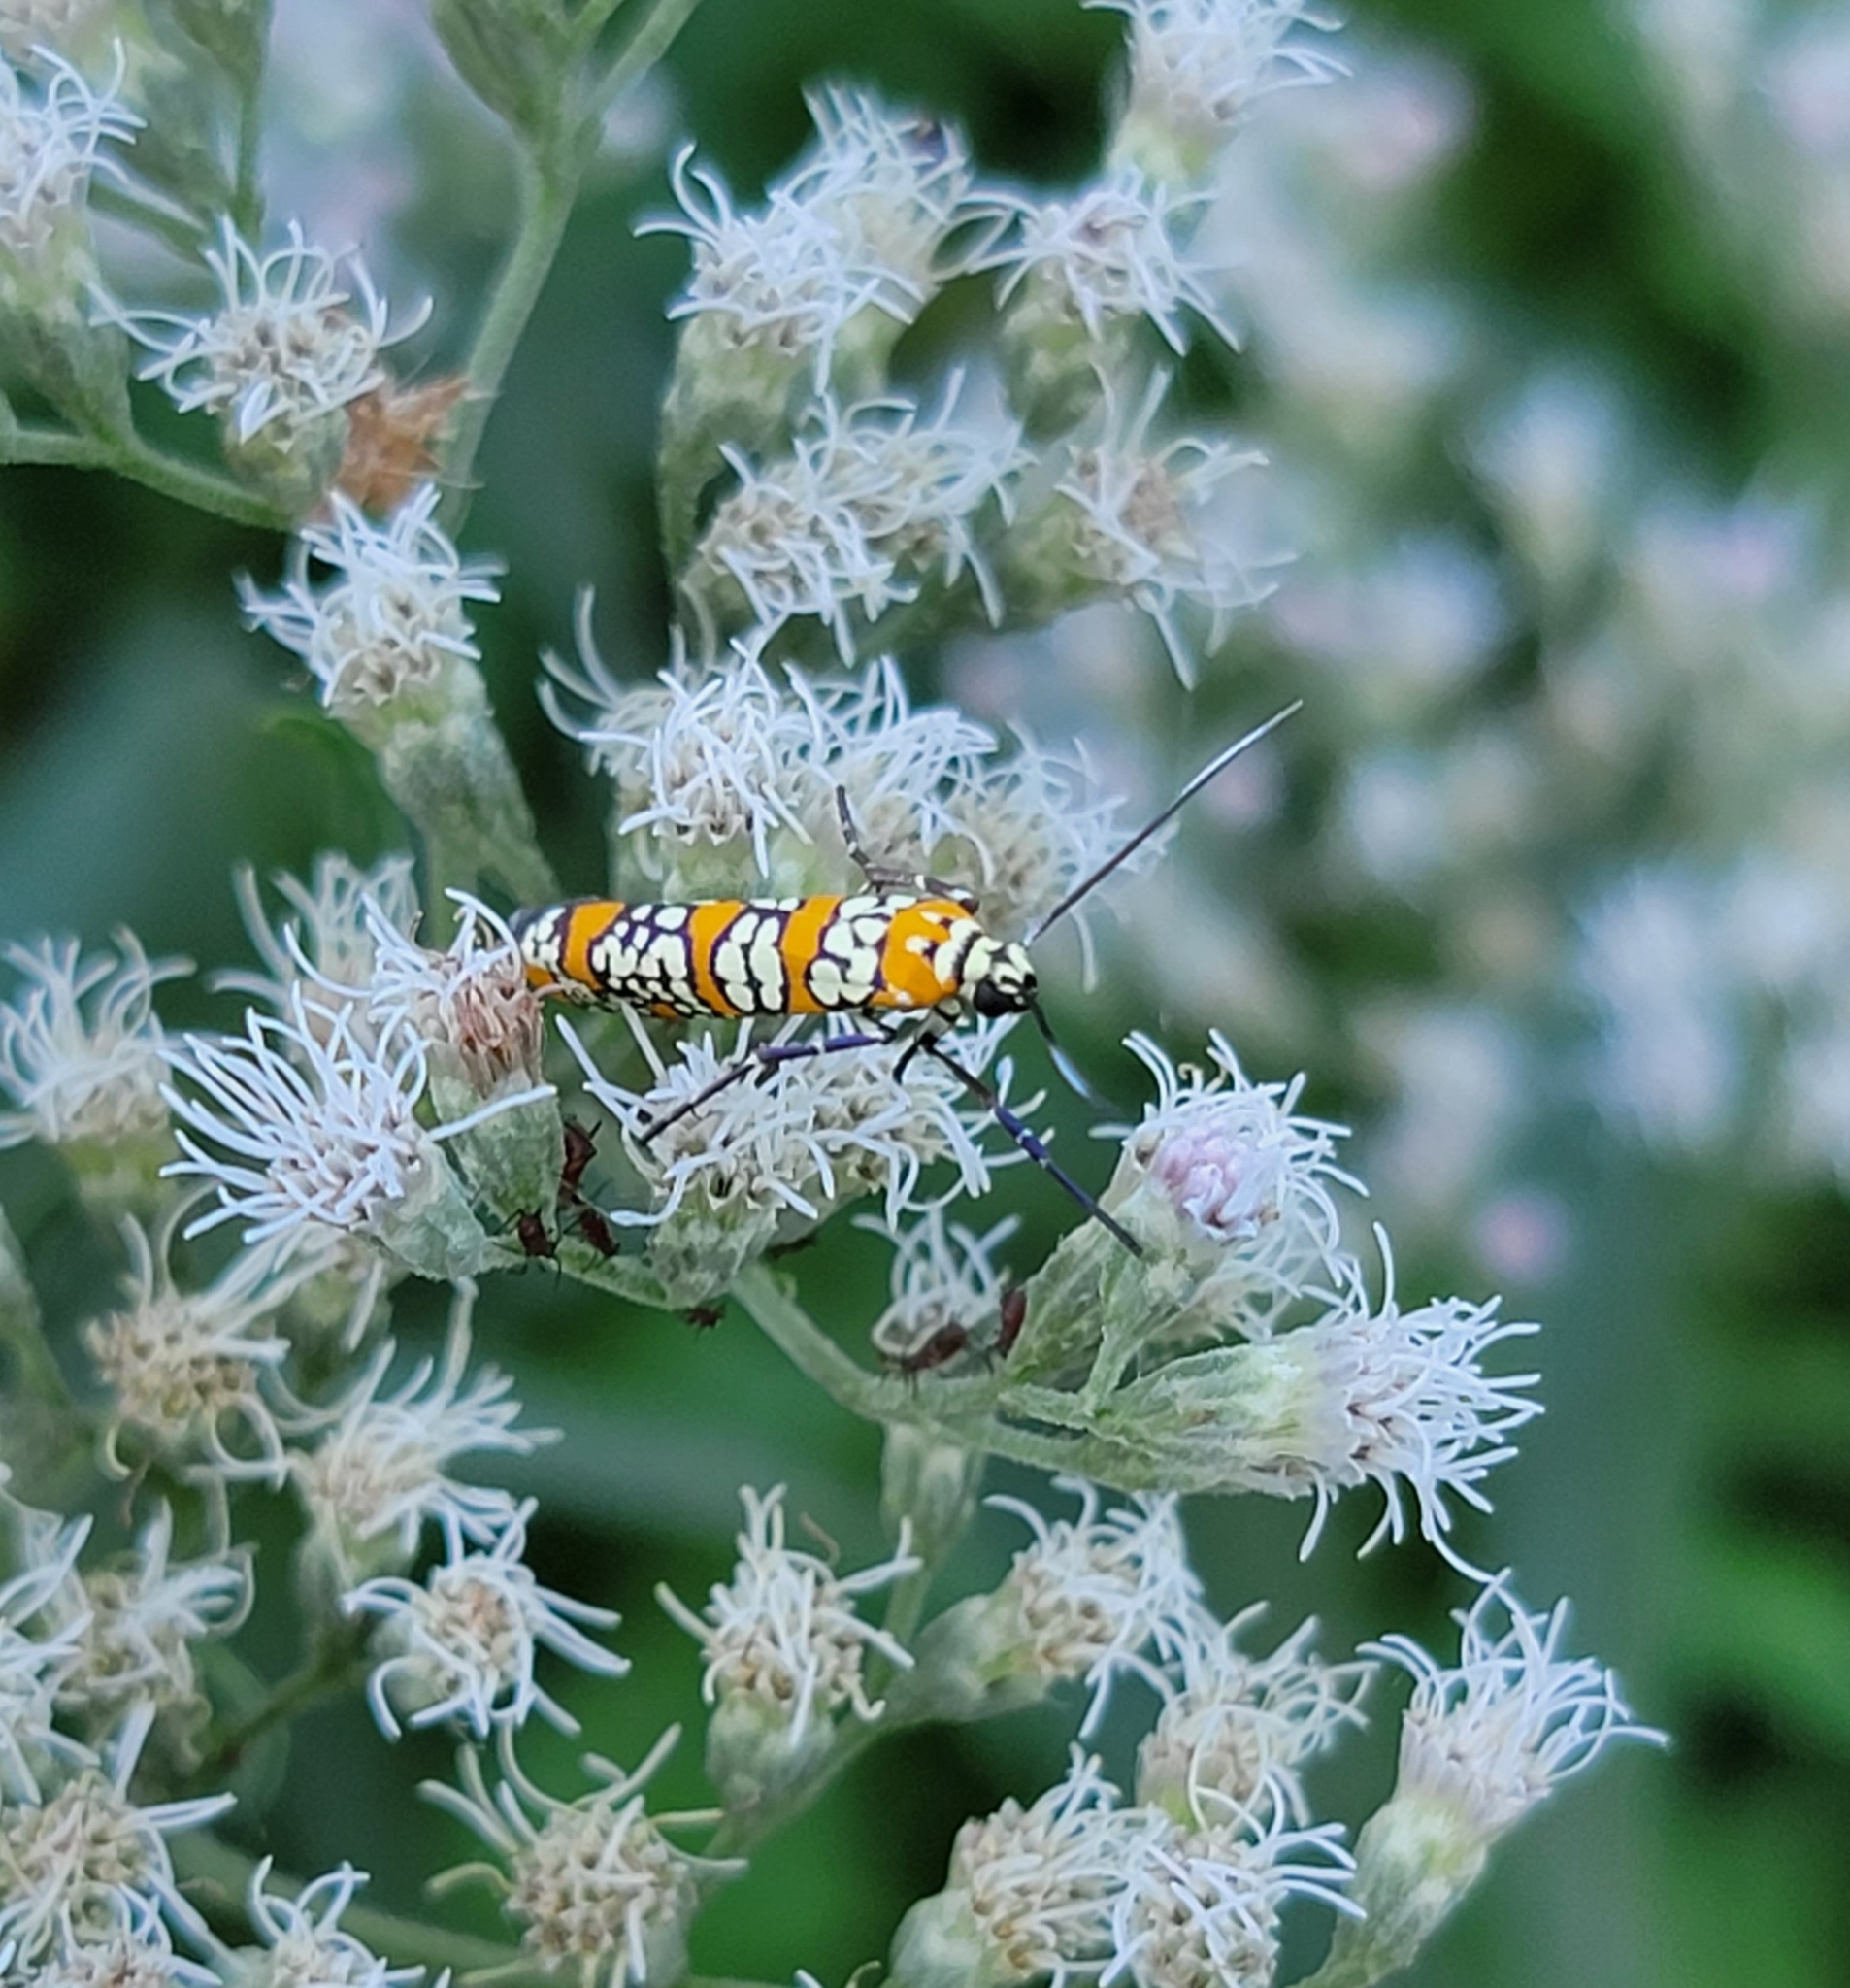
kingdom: Animalia
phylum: Arthropoda
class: Insecta
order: Lepidoptera
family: Attevidae
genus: Atteva
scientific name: Atteva punctella
